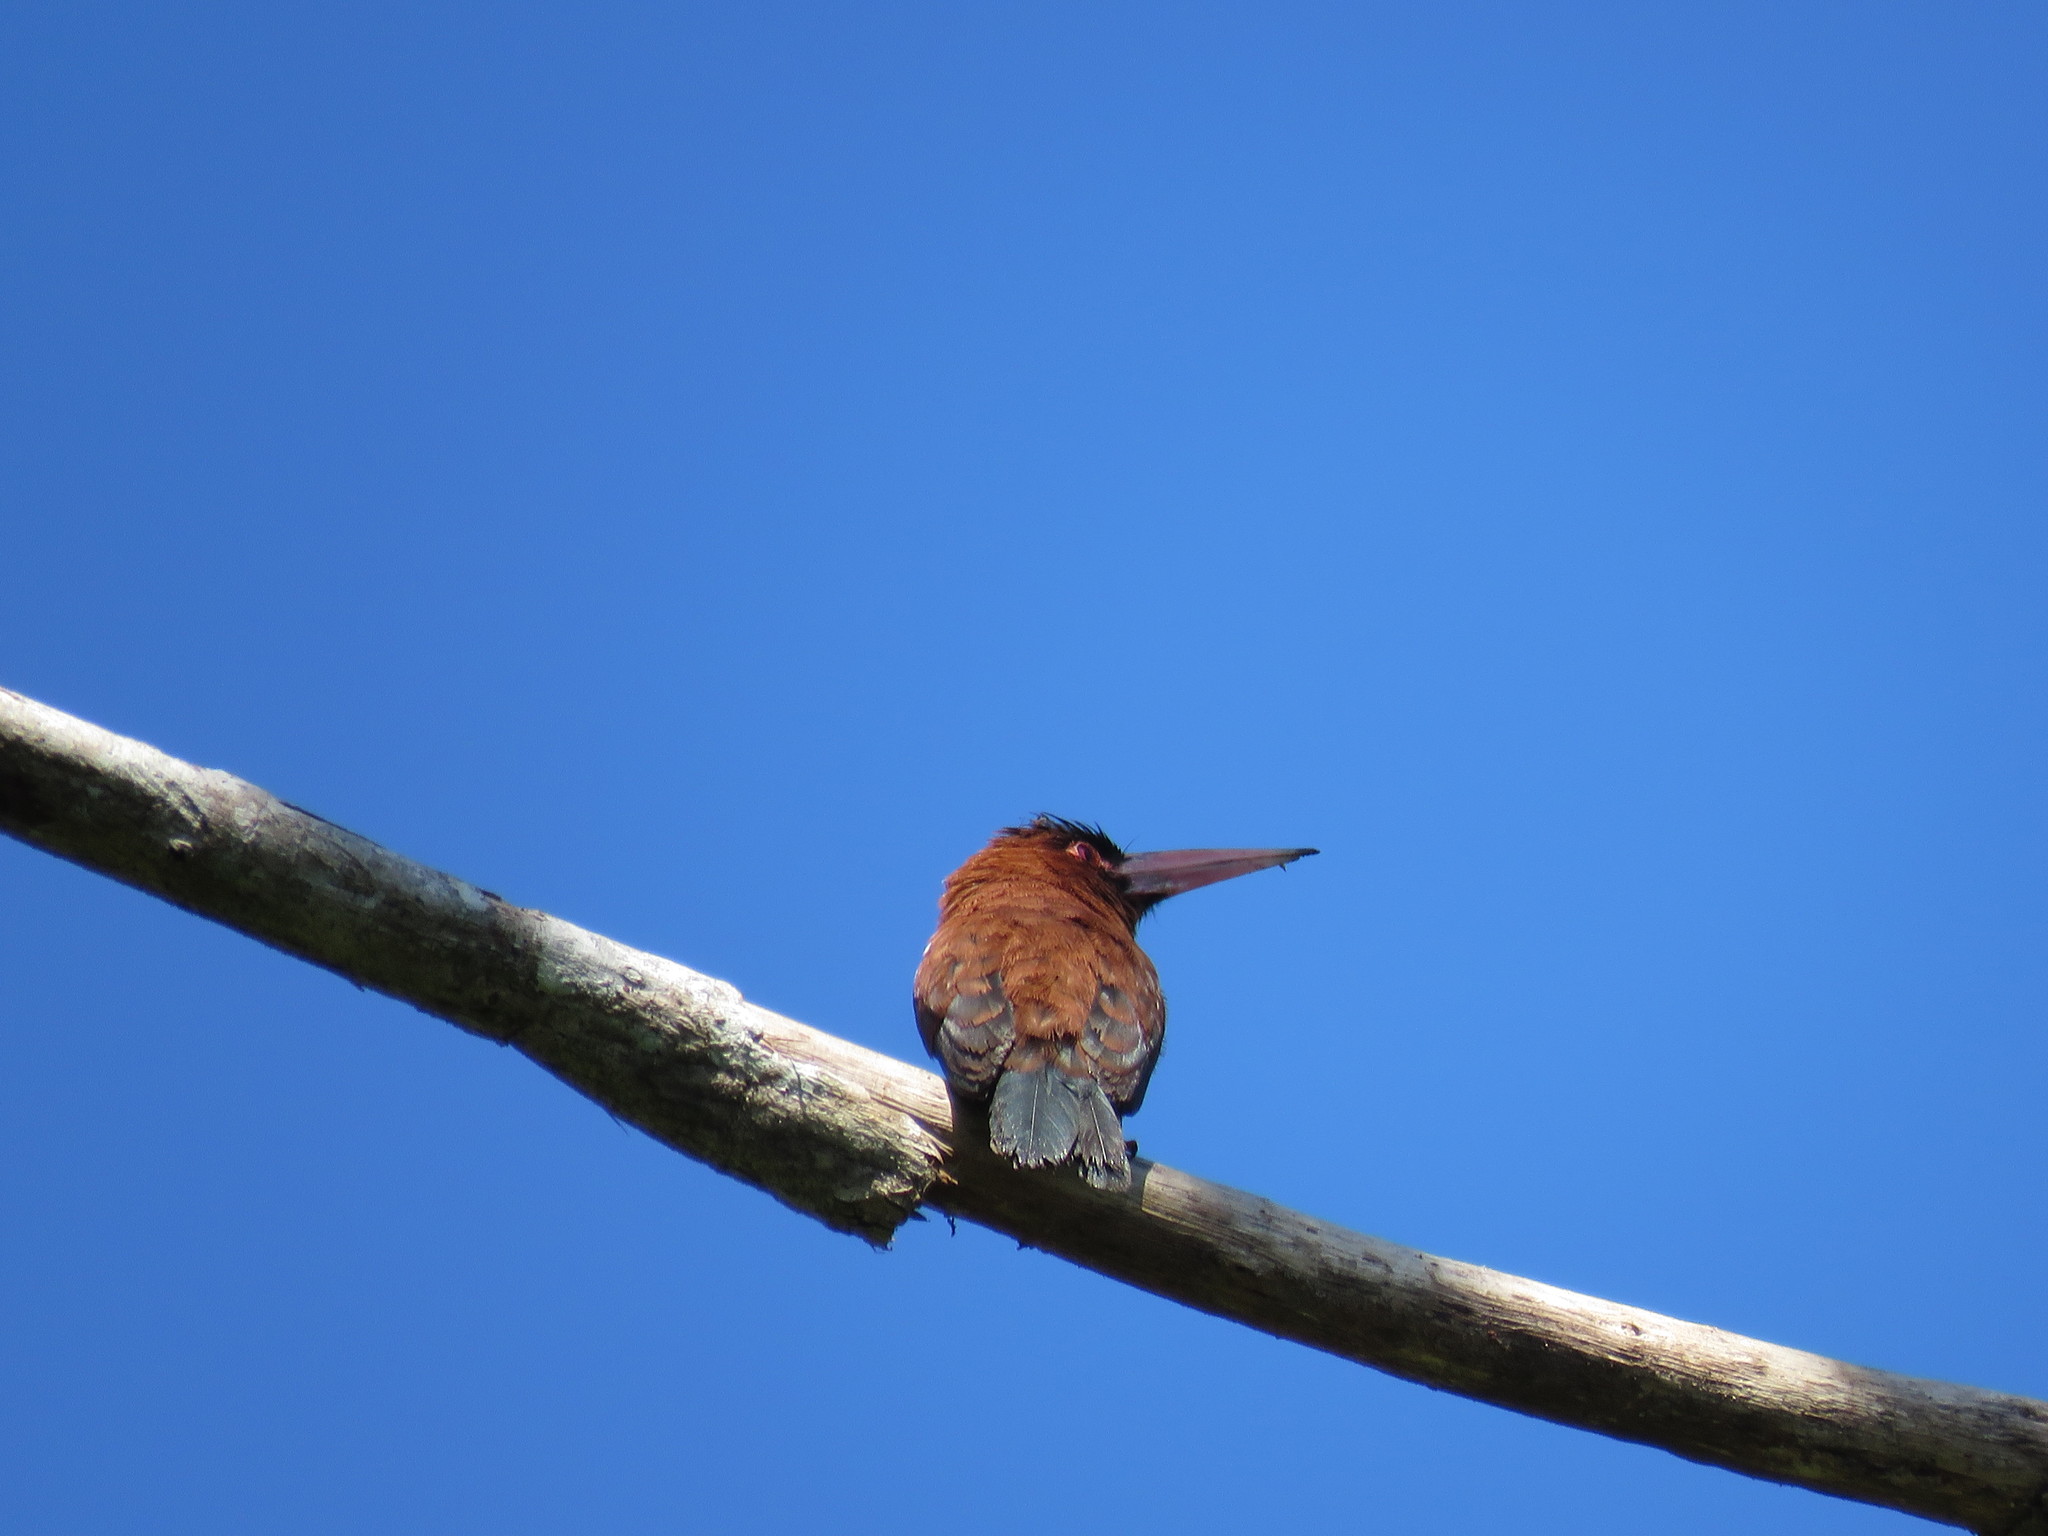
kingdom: Animalia
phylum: Chordata
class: Aves
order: Piciformes
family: Galbulidae
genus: Galbalcyrhynchus
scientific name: Galbalcyrhynchus purusianus
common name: Purus jacamar
